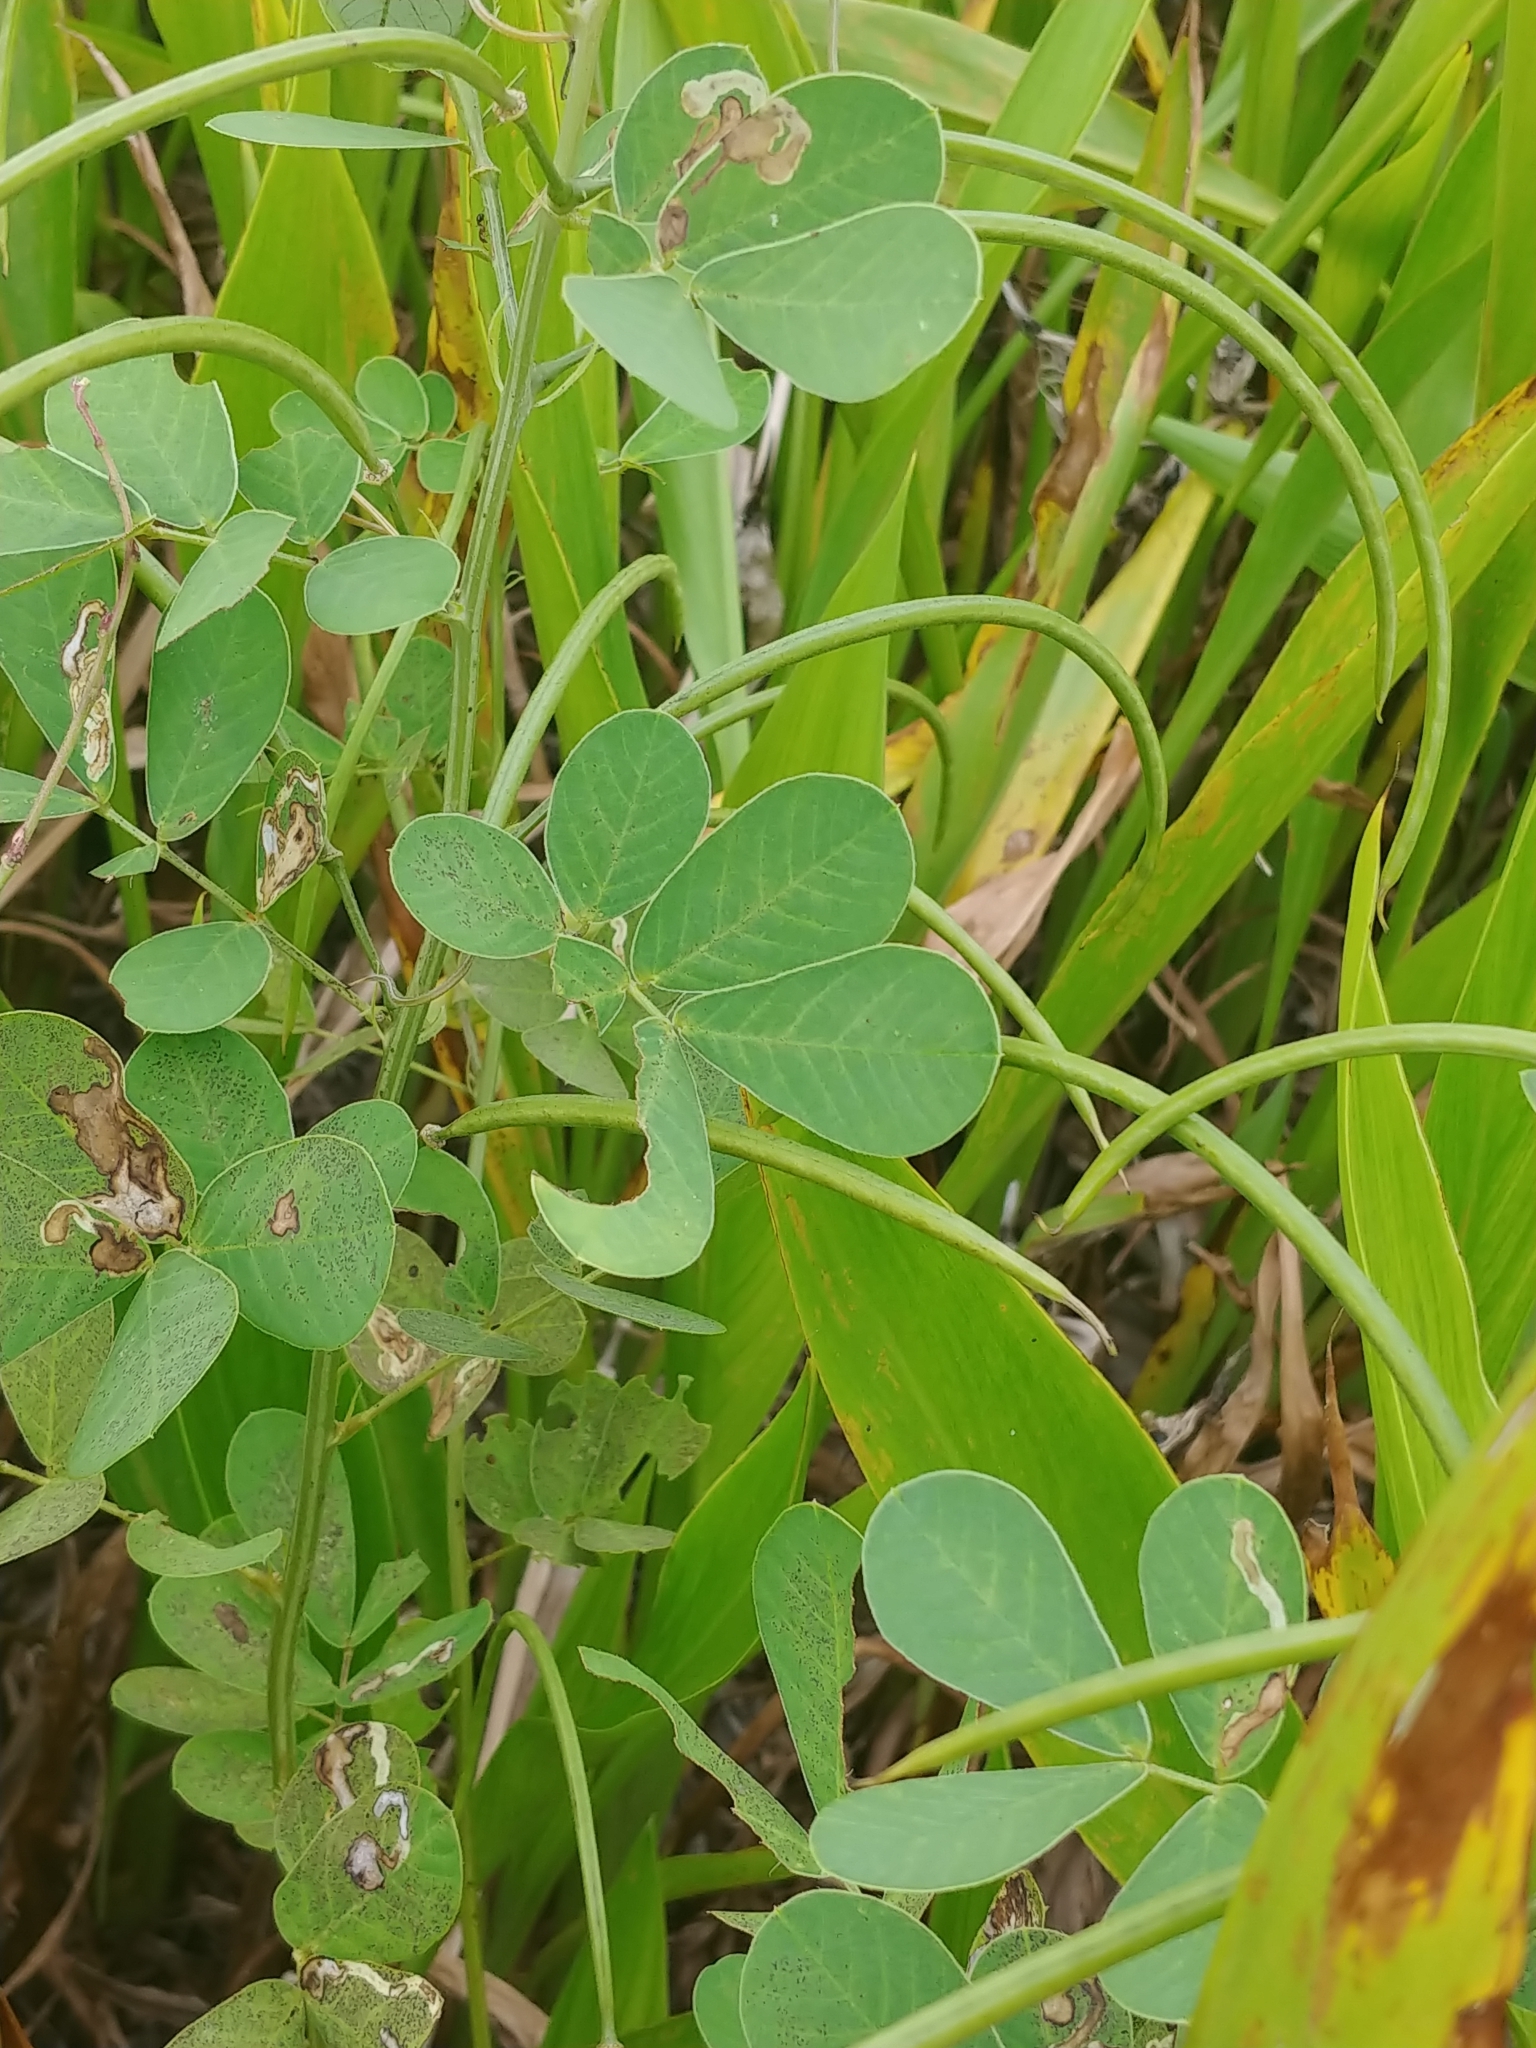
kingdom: Plantae
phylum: Tracheophyta
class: Magnoliopsida
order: Fabales
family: Fabaceae
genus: Senna
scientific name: Senna obtusifolia
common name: Java-bean
